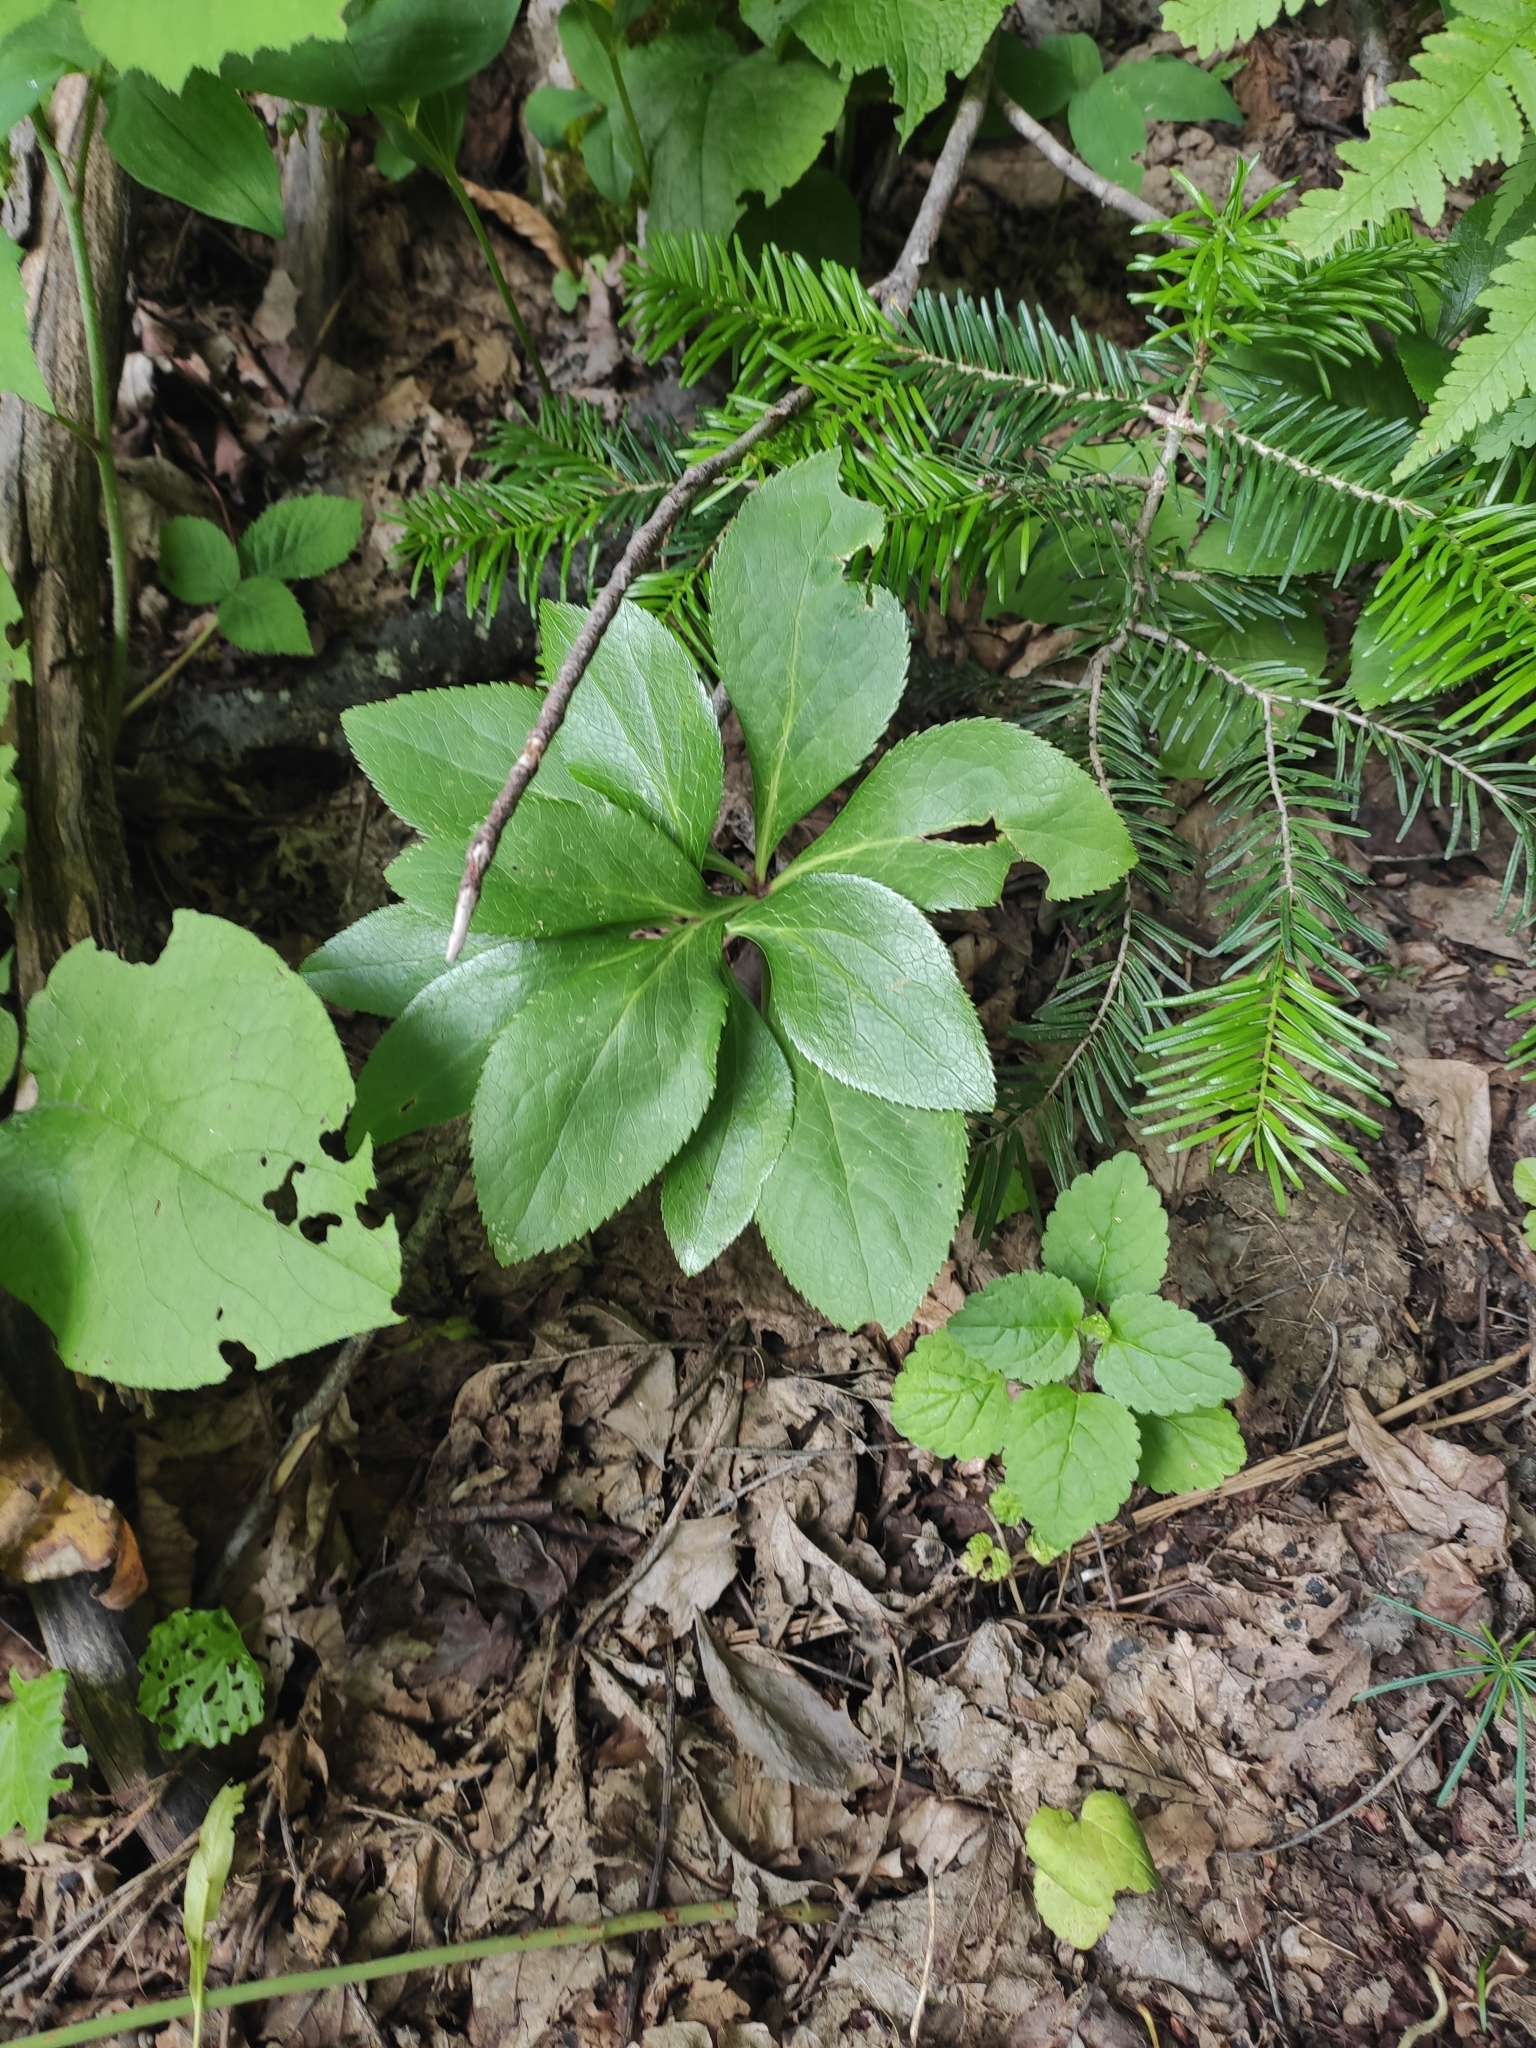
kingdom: Plantae
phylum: Tracheophyta
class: Magnoliopsida
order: Ranunculales
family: Ranunculaceae
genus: Helleborus
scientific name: Helleborus orientalis
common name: Lenten-rose
